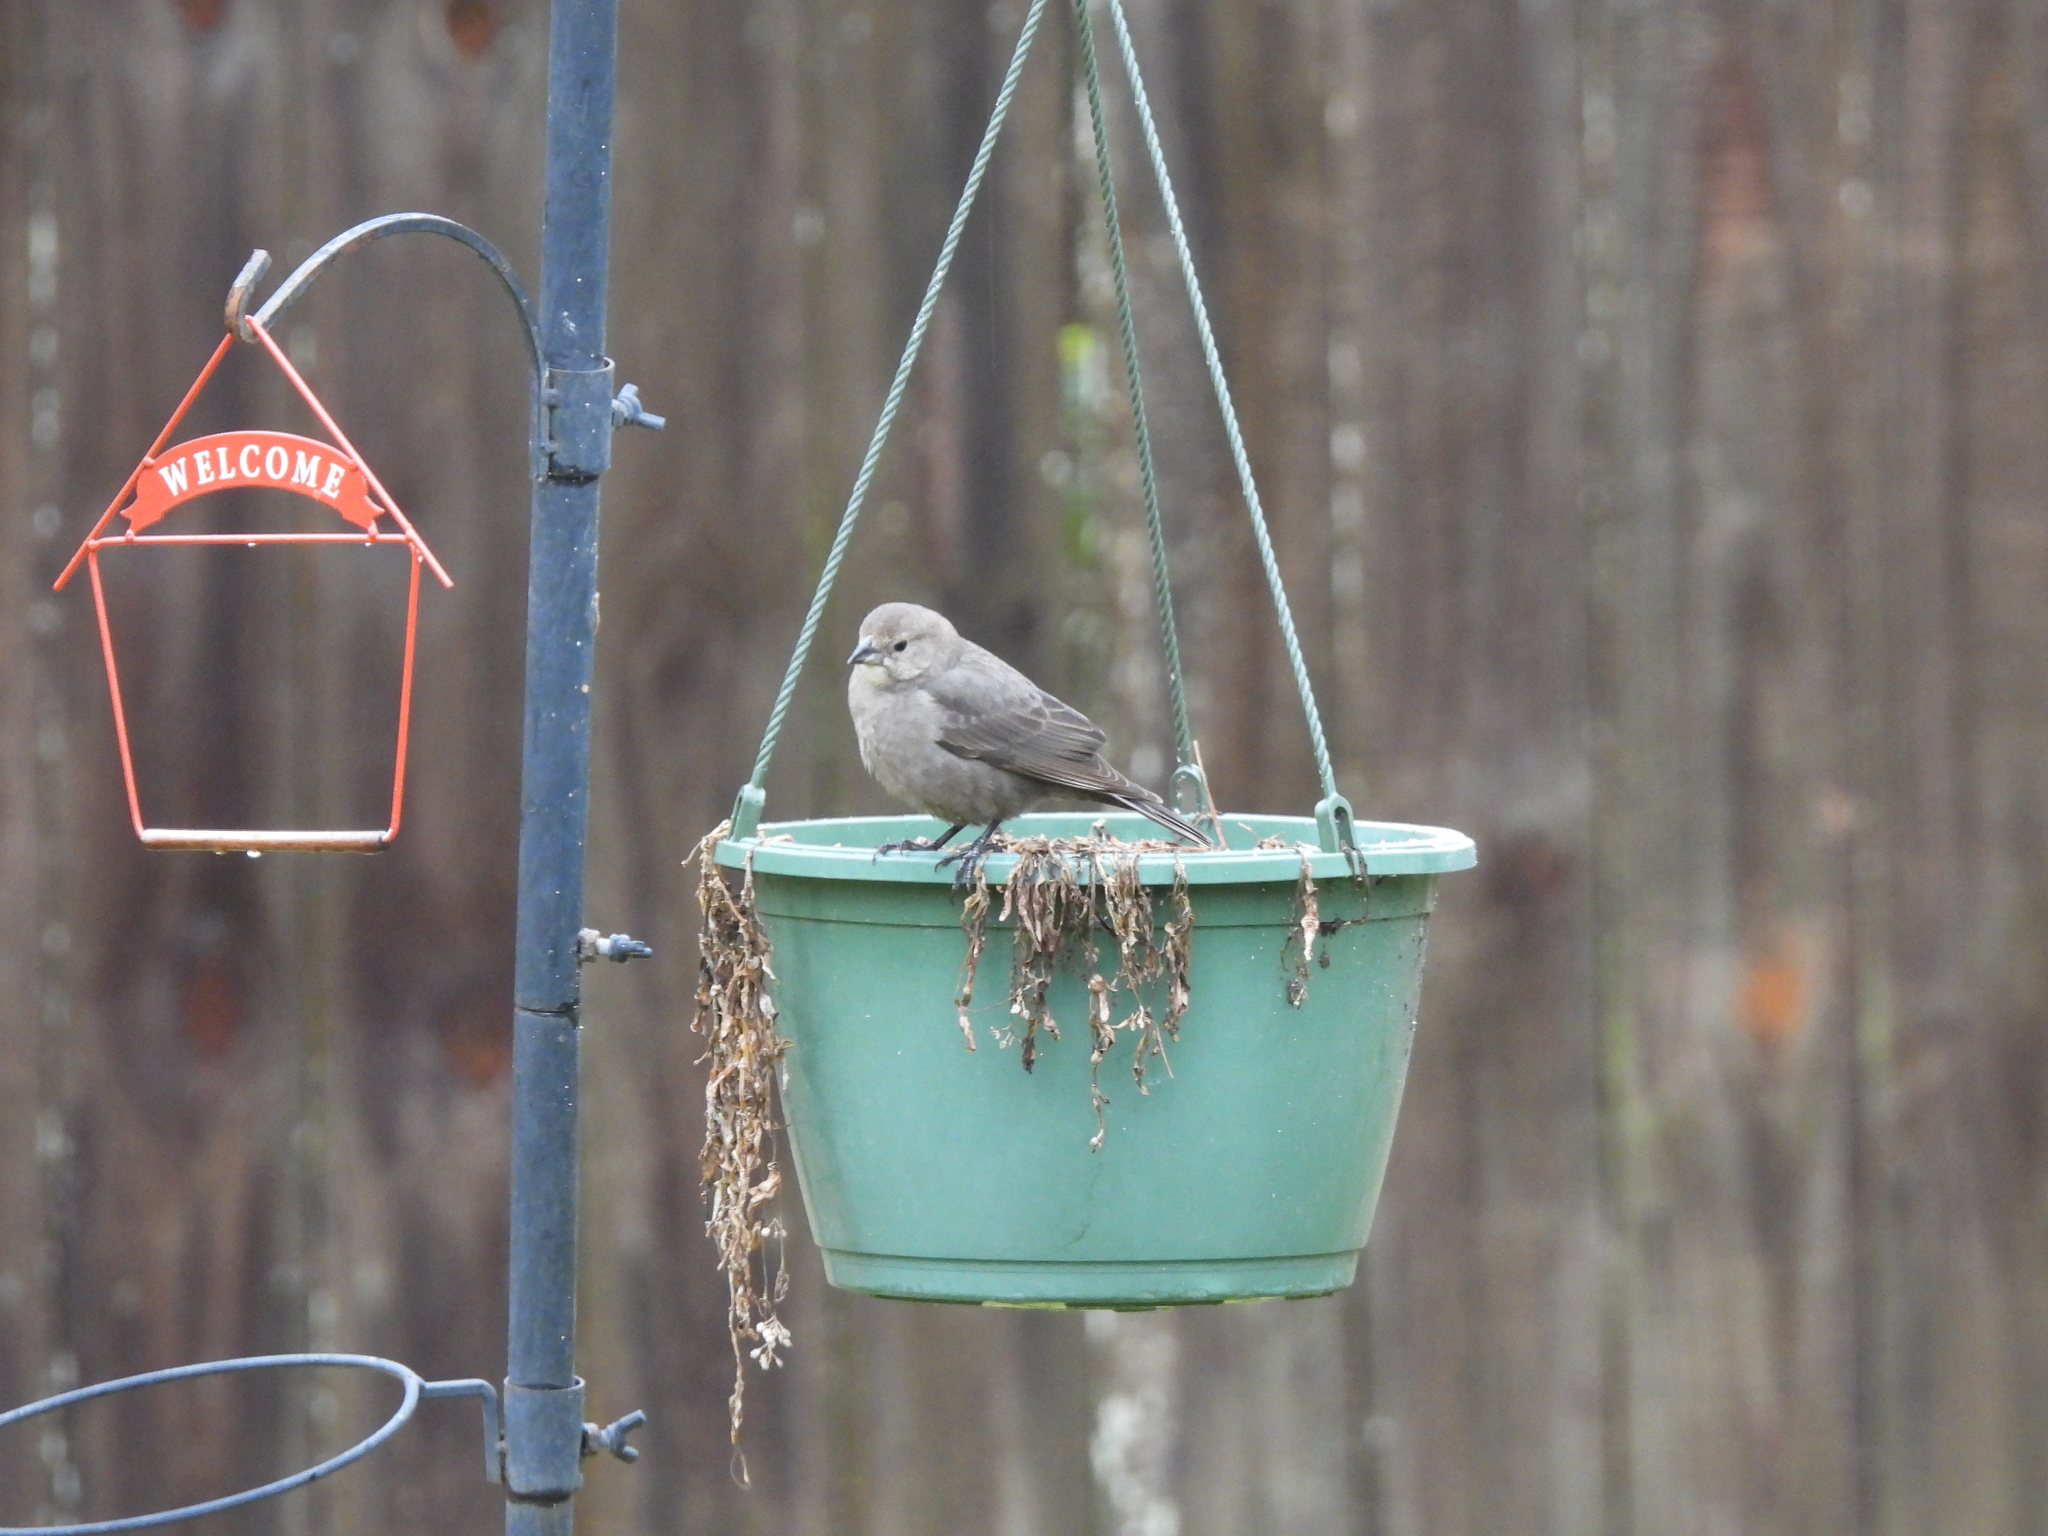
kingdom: Animalia
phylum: Chordata
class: Aves
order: Passeriformes
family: Icteridae
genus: Molothrus
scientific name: Molothrus ater
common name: Brown-headed cowbird
